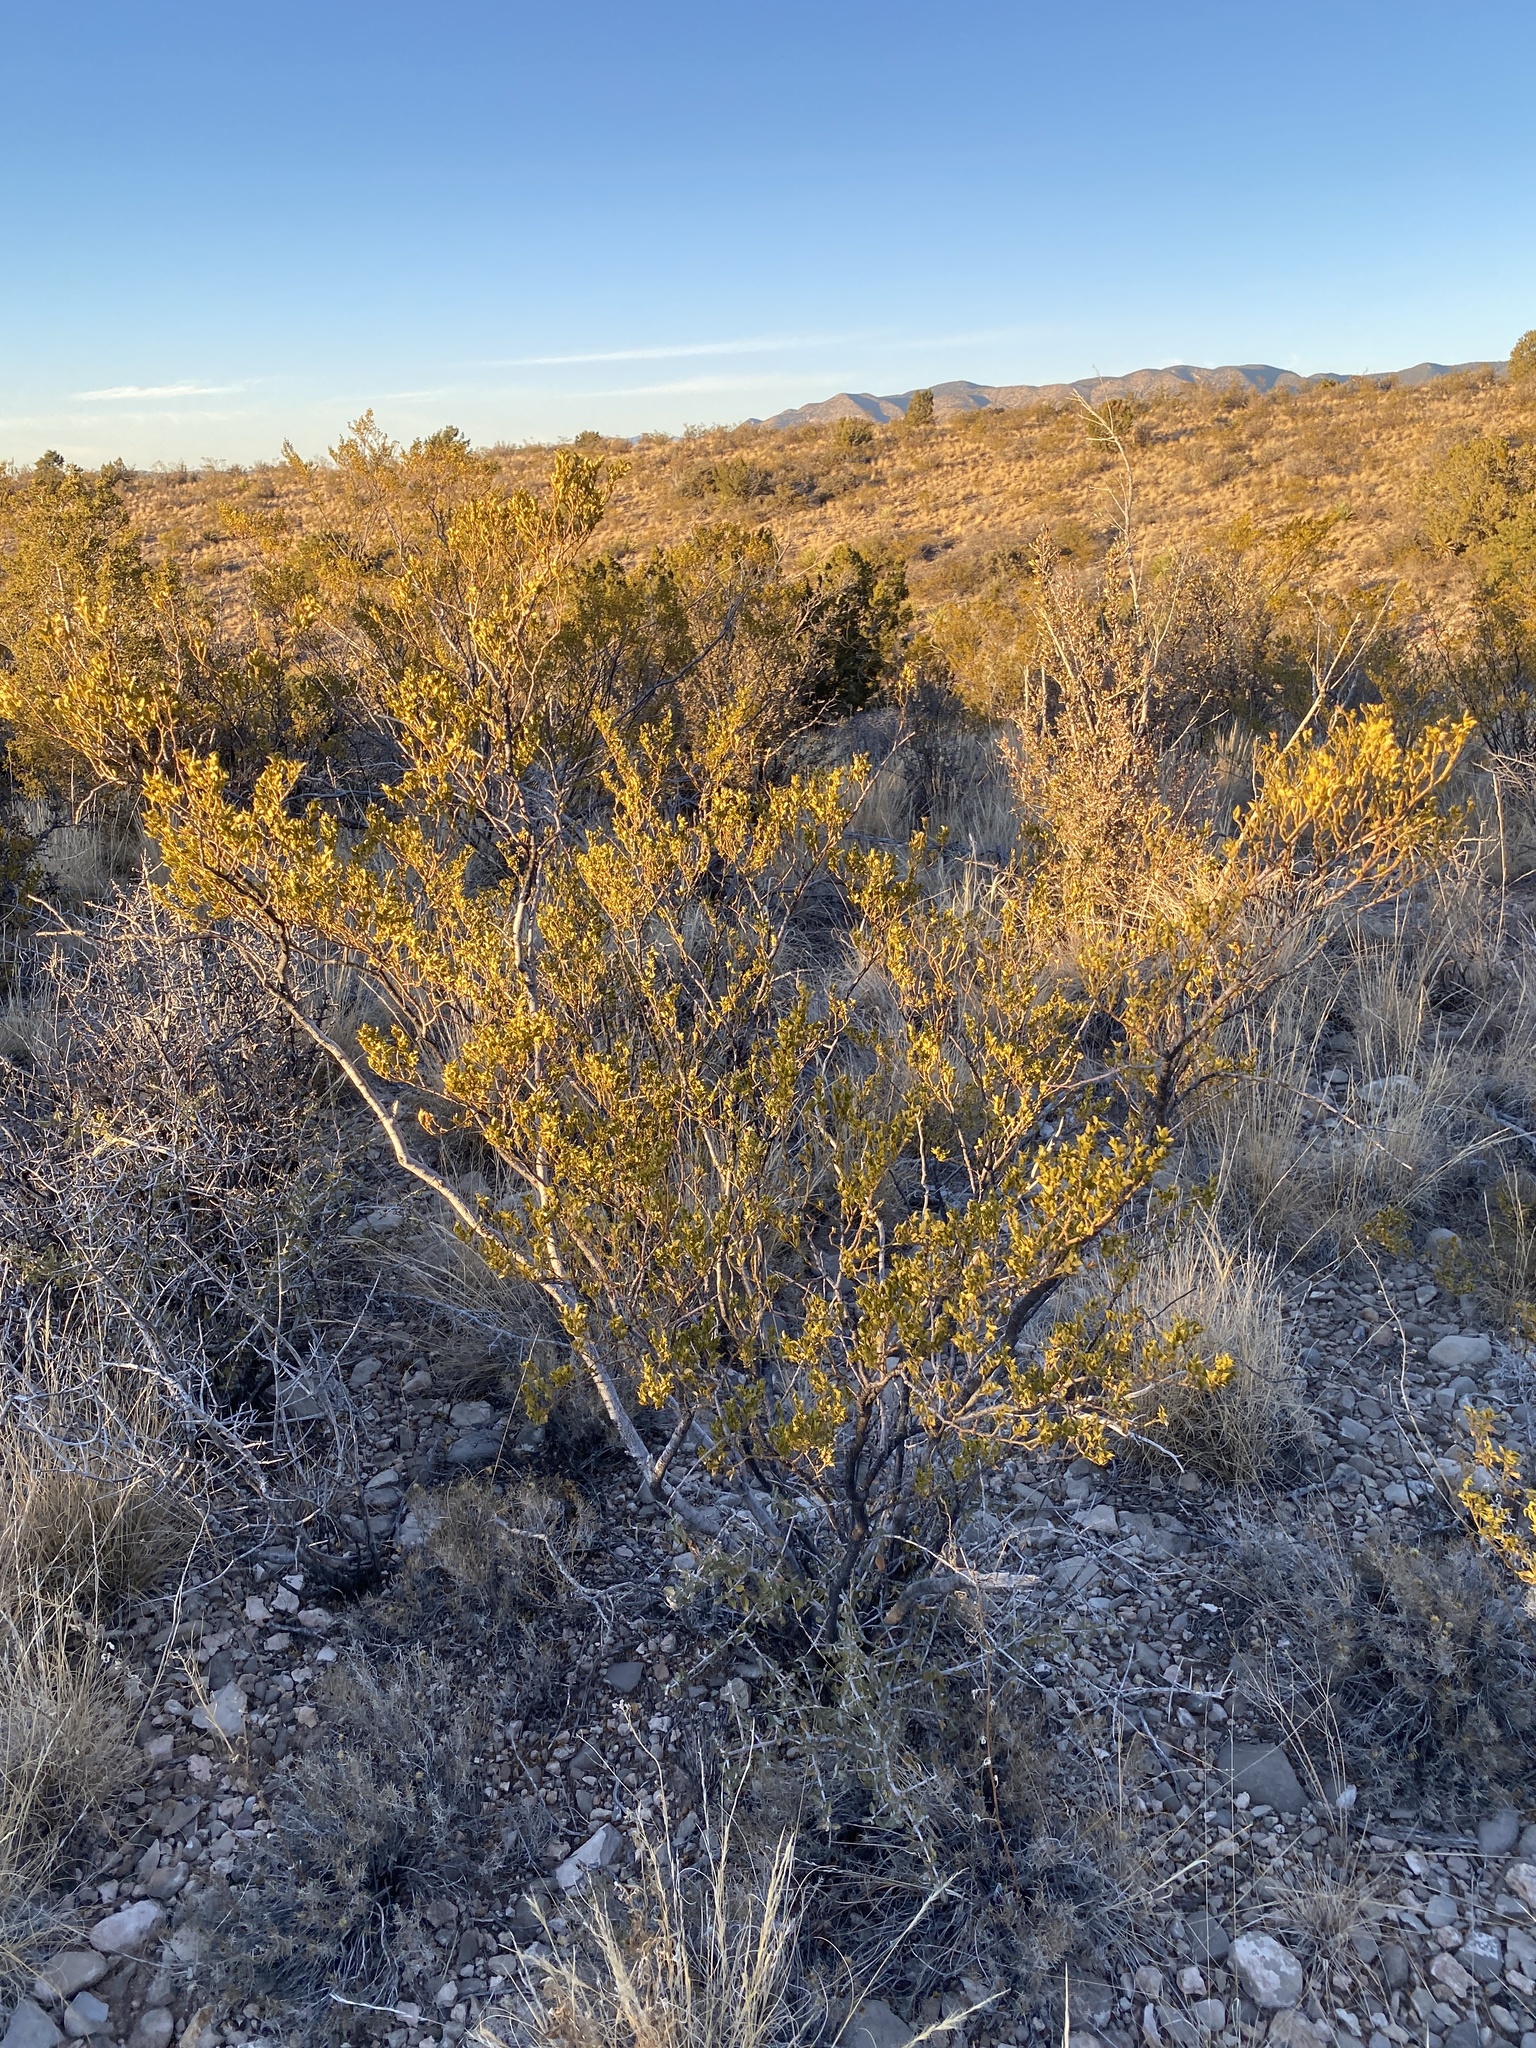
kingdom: Plantae
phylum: Tracheophyta
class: Magnoliopsida
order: Zygophyllales
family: Zygophyllaceae
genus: Larrea
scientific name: Larrea tridentata
